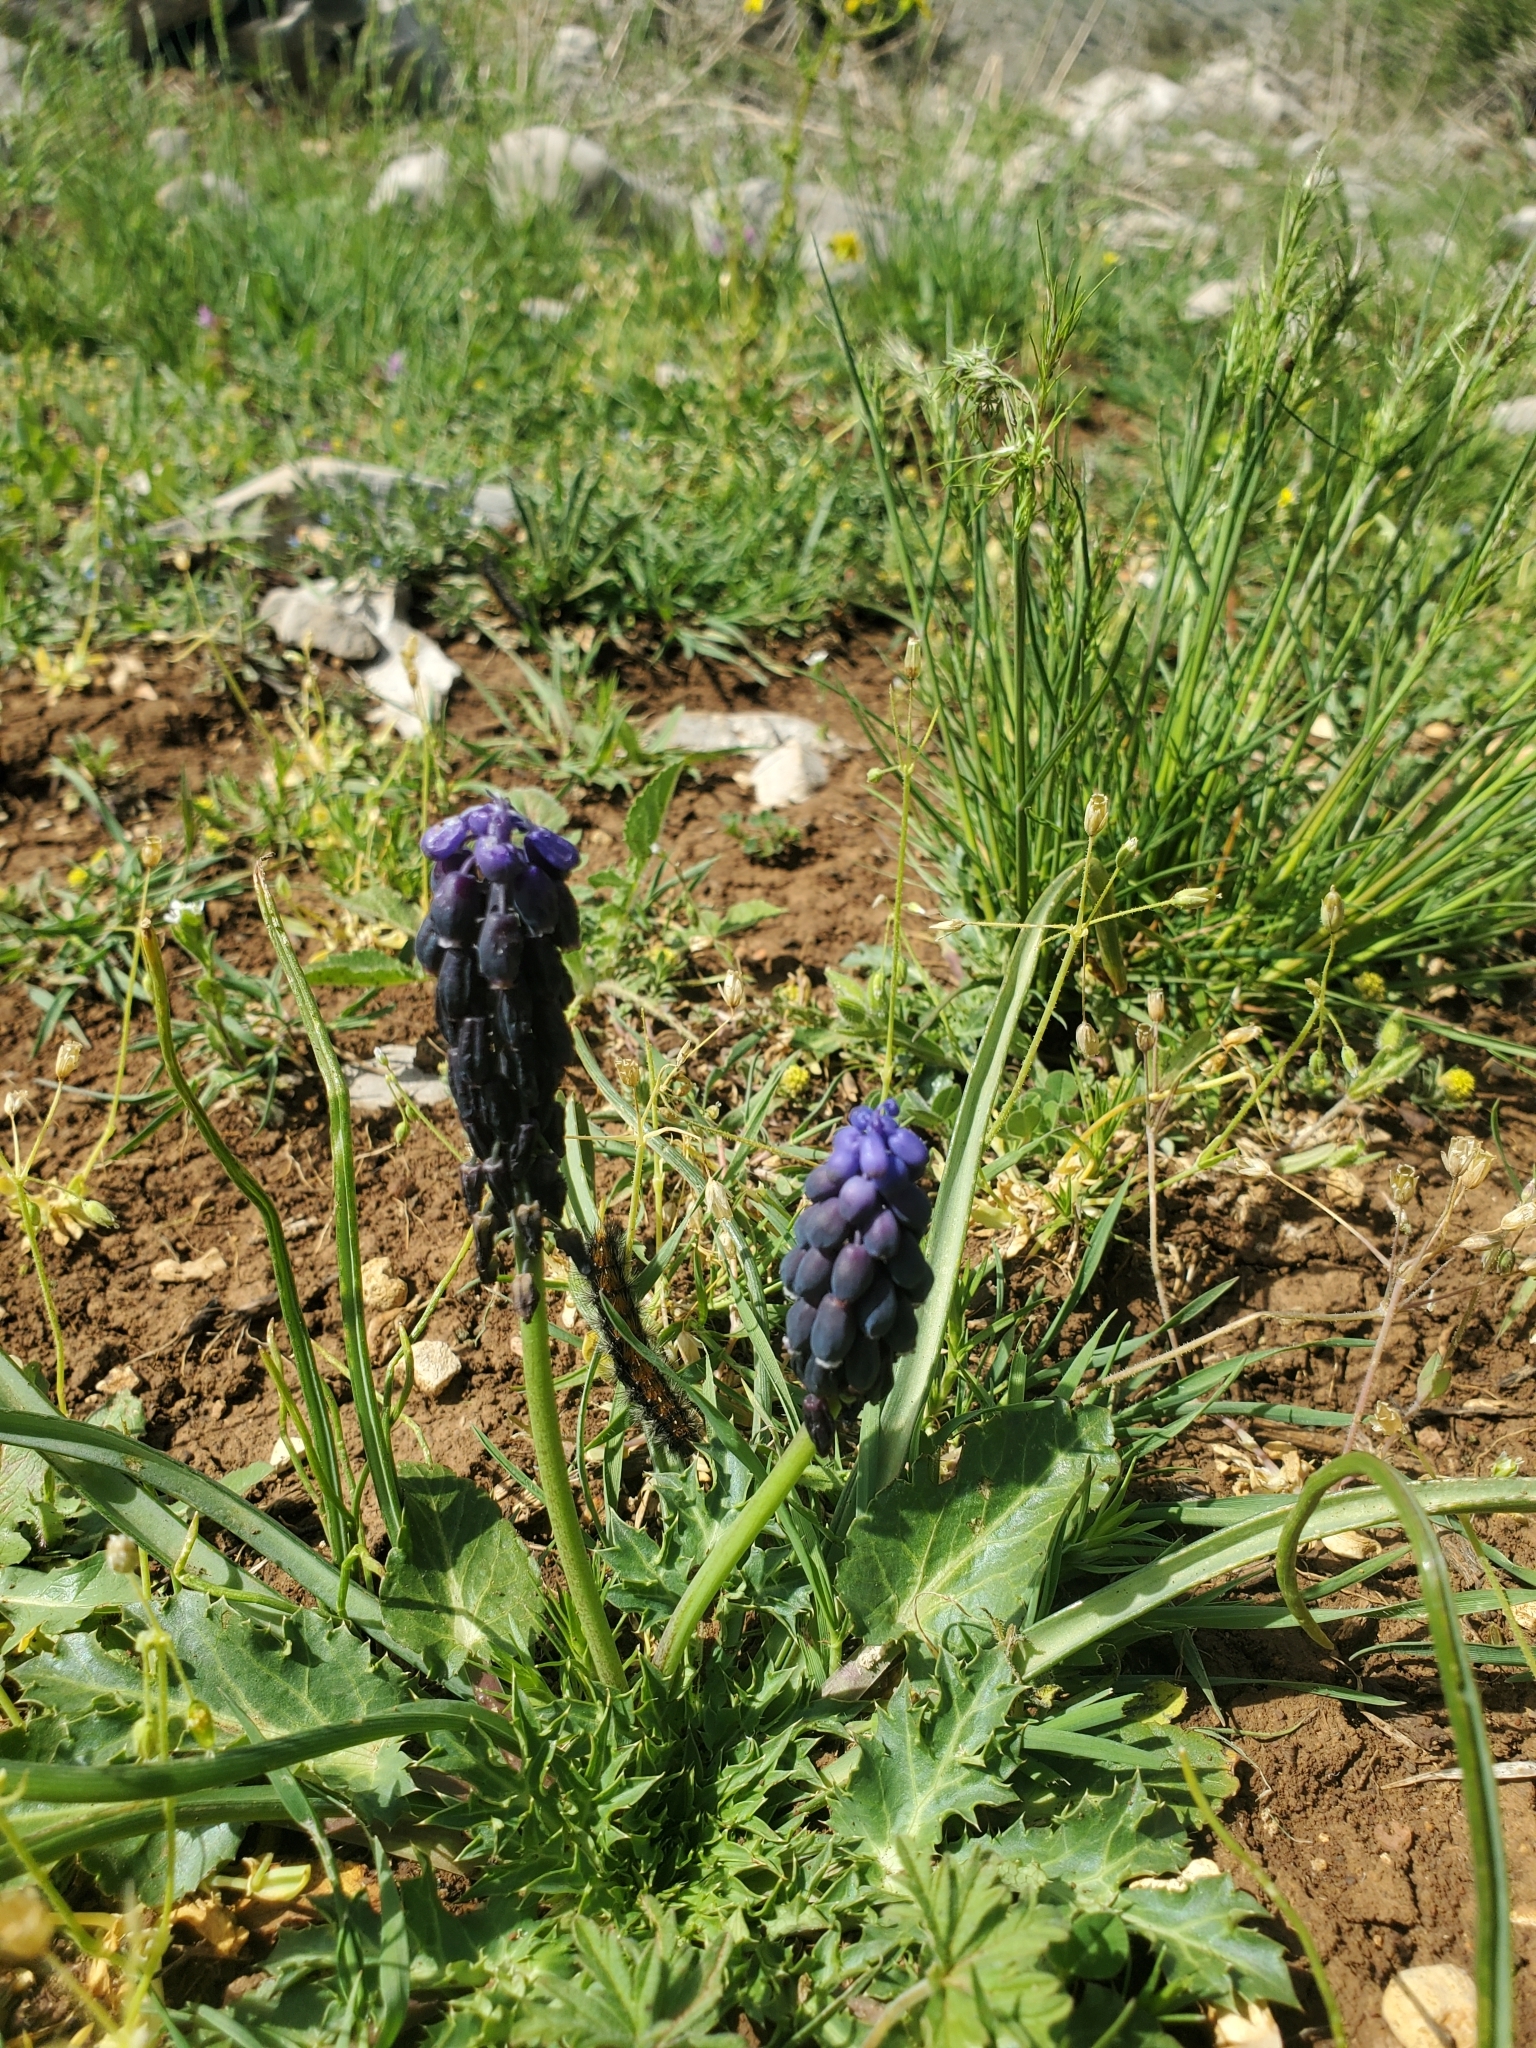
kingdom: Plantae
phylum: Tracheophyta
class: Liliopsida
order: Asparagales
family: Asparagaceae
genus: Muscari
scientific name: Muscari neglectum
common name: Grape-hyacinth
